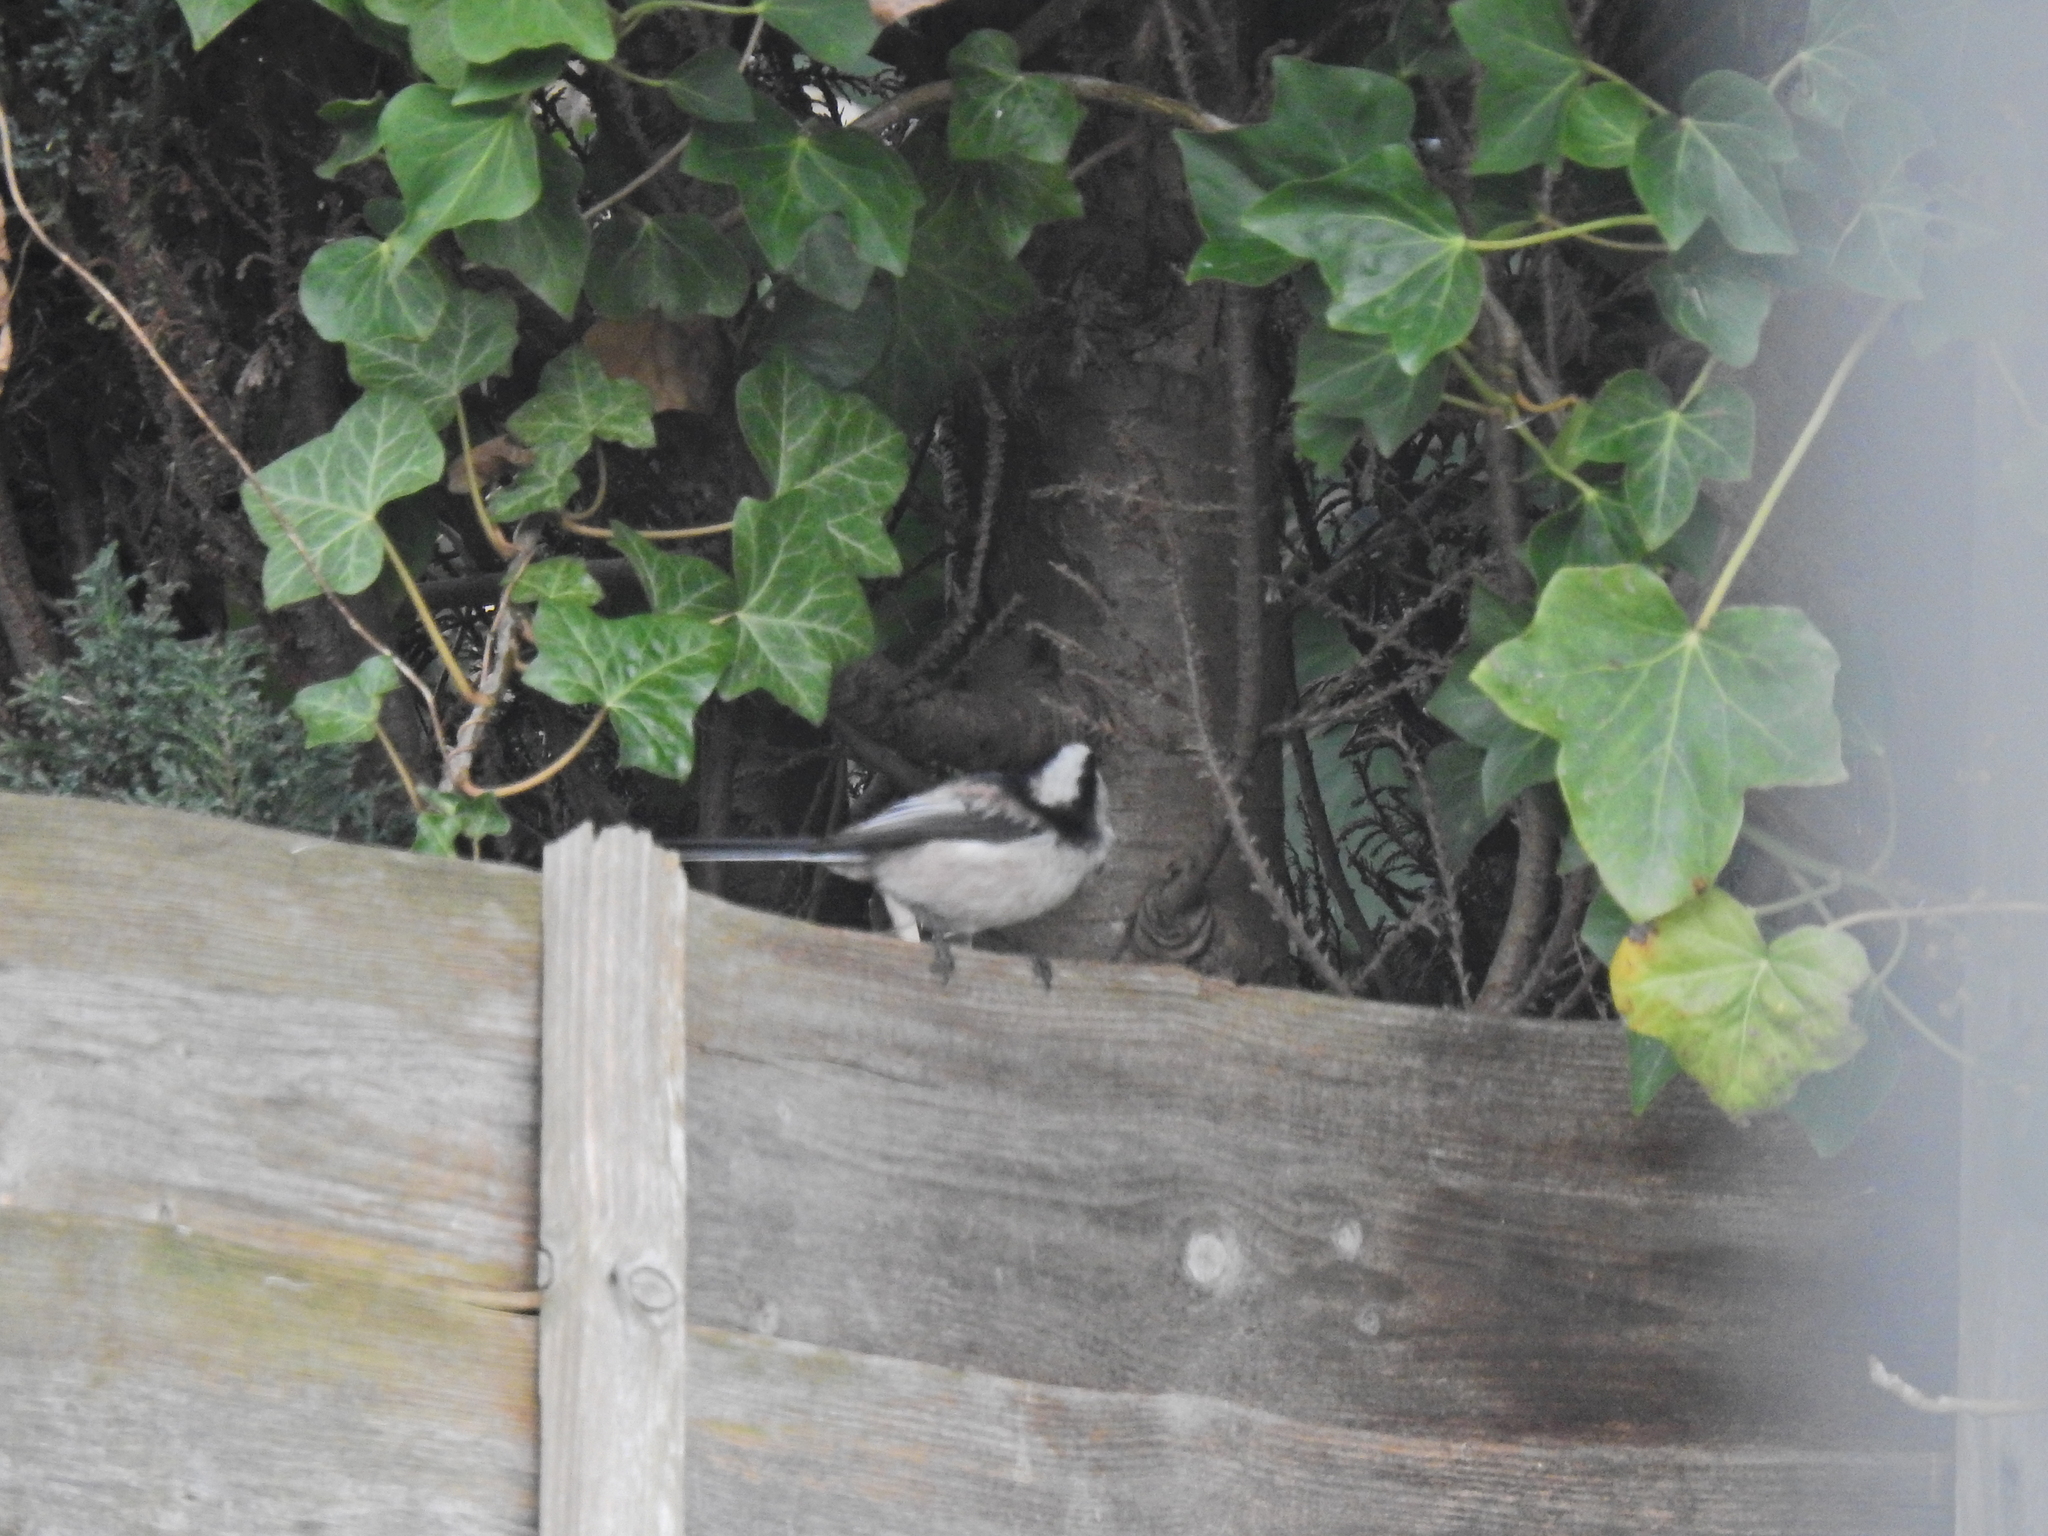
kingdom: Animalia
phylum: Chordata
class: Aves
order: Passeriformes
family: Aegithalidae
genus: Aegithalos
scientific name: Aegithalos caudatus
